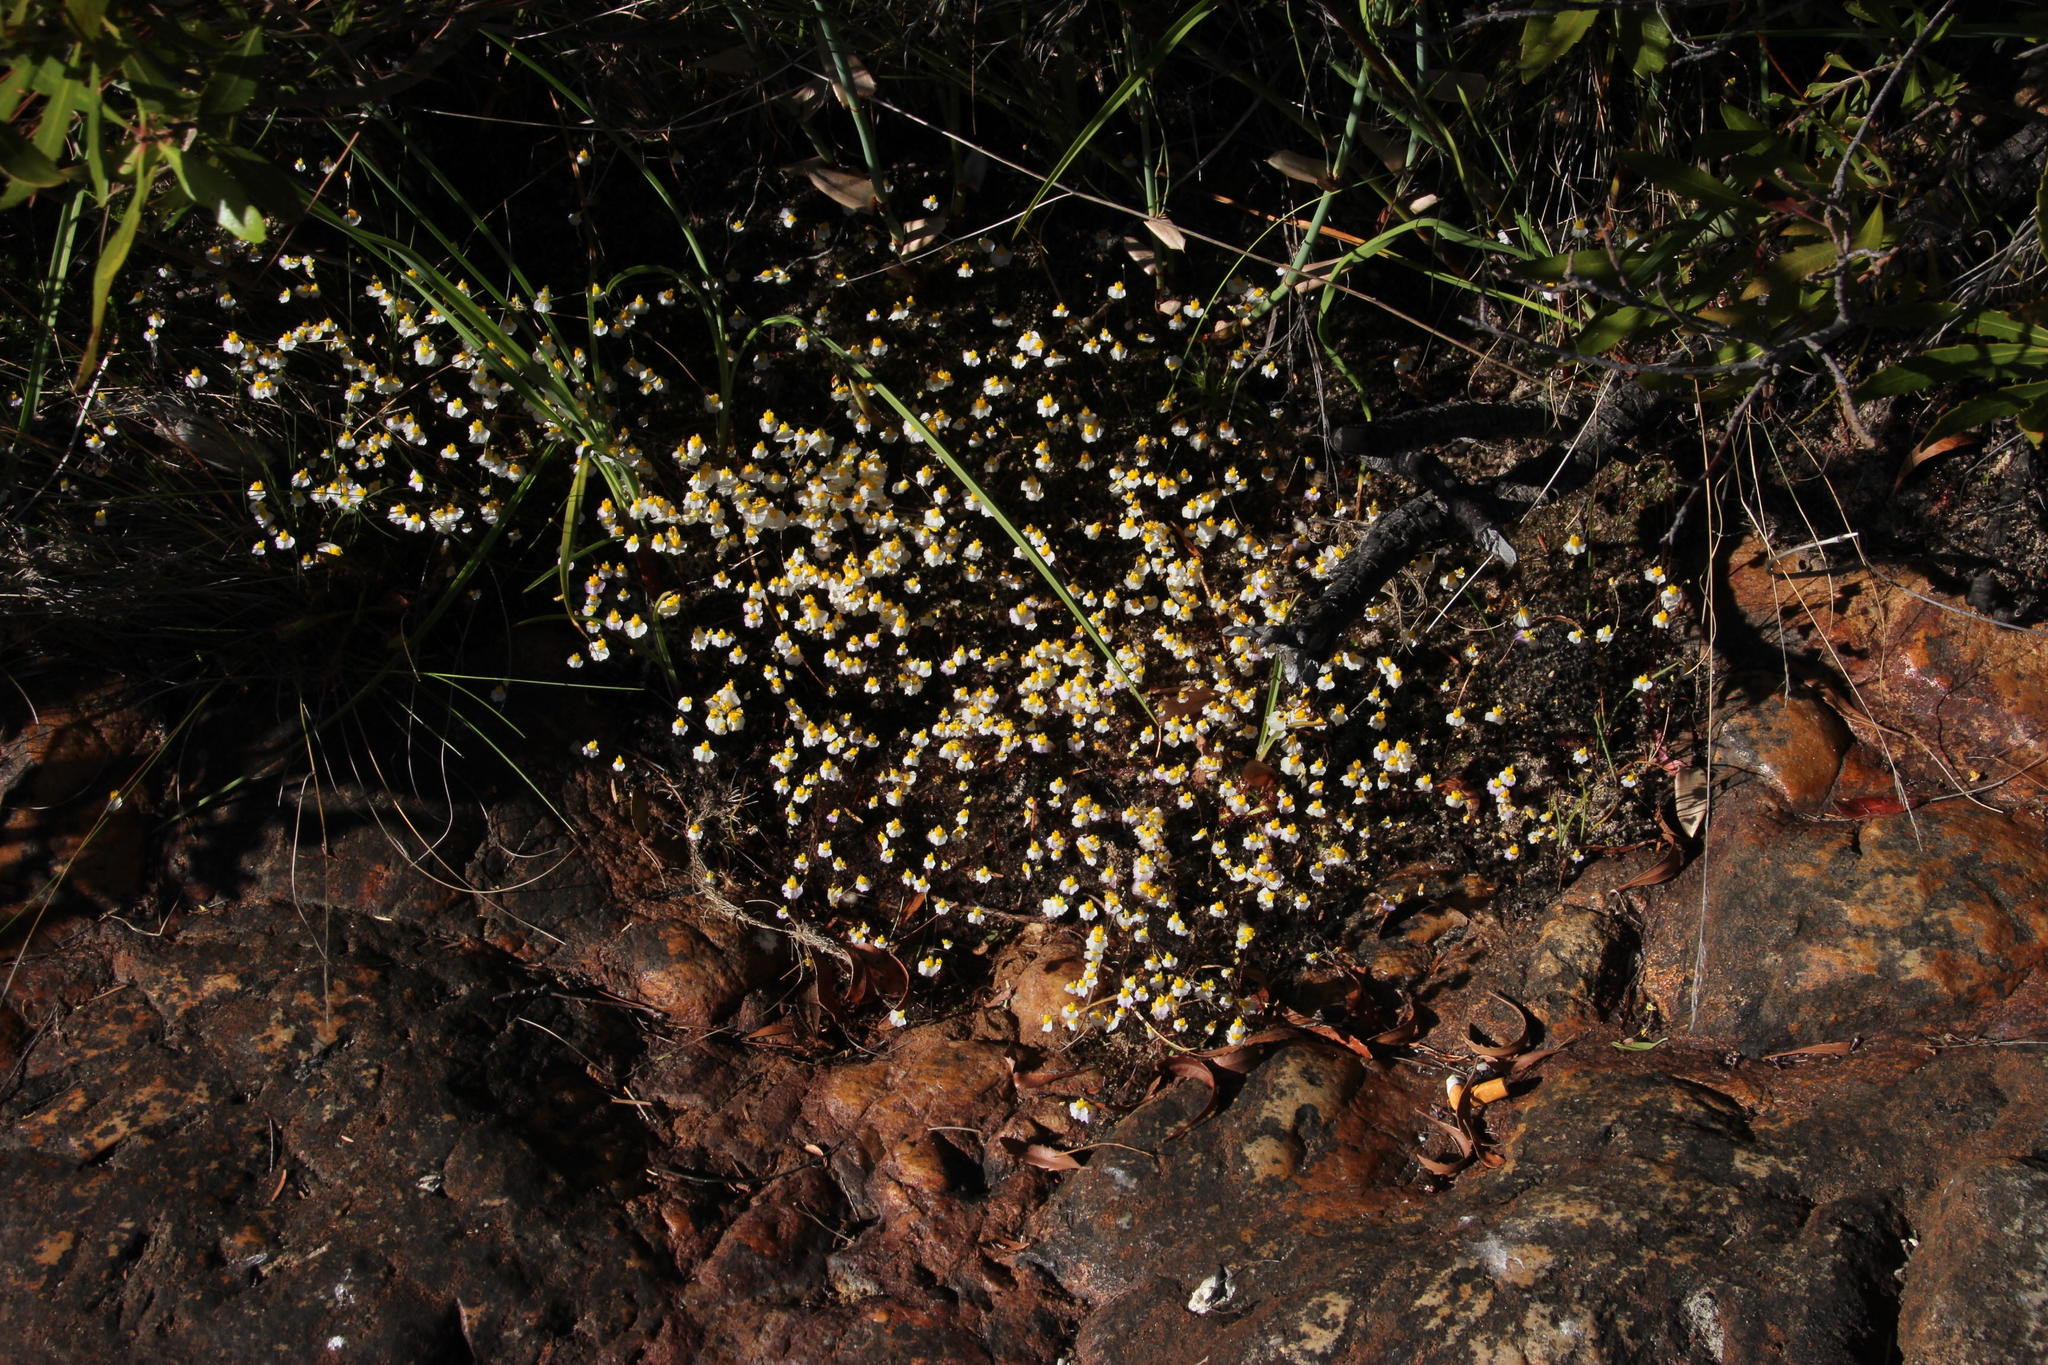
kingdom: Plantae
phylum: Tracheophyta
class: Magnoliopsida
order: Lamiales
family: Lentibulariaceae
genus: Utricularia
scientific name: Utricularia bisquamata
